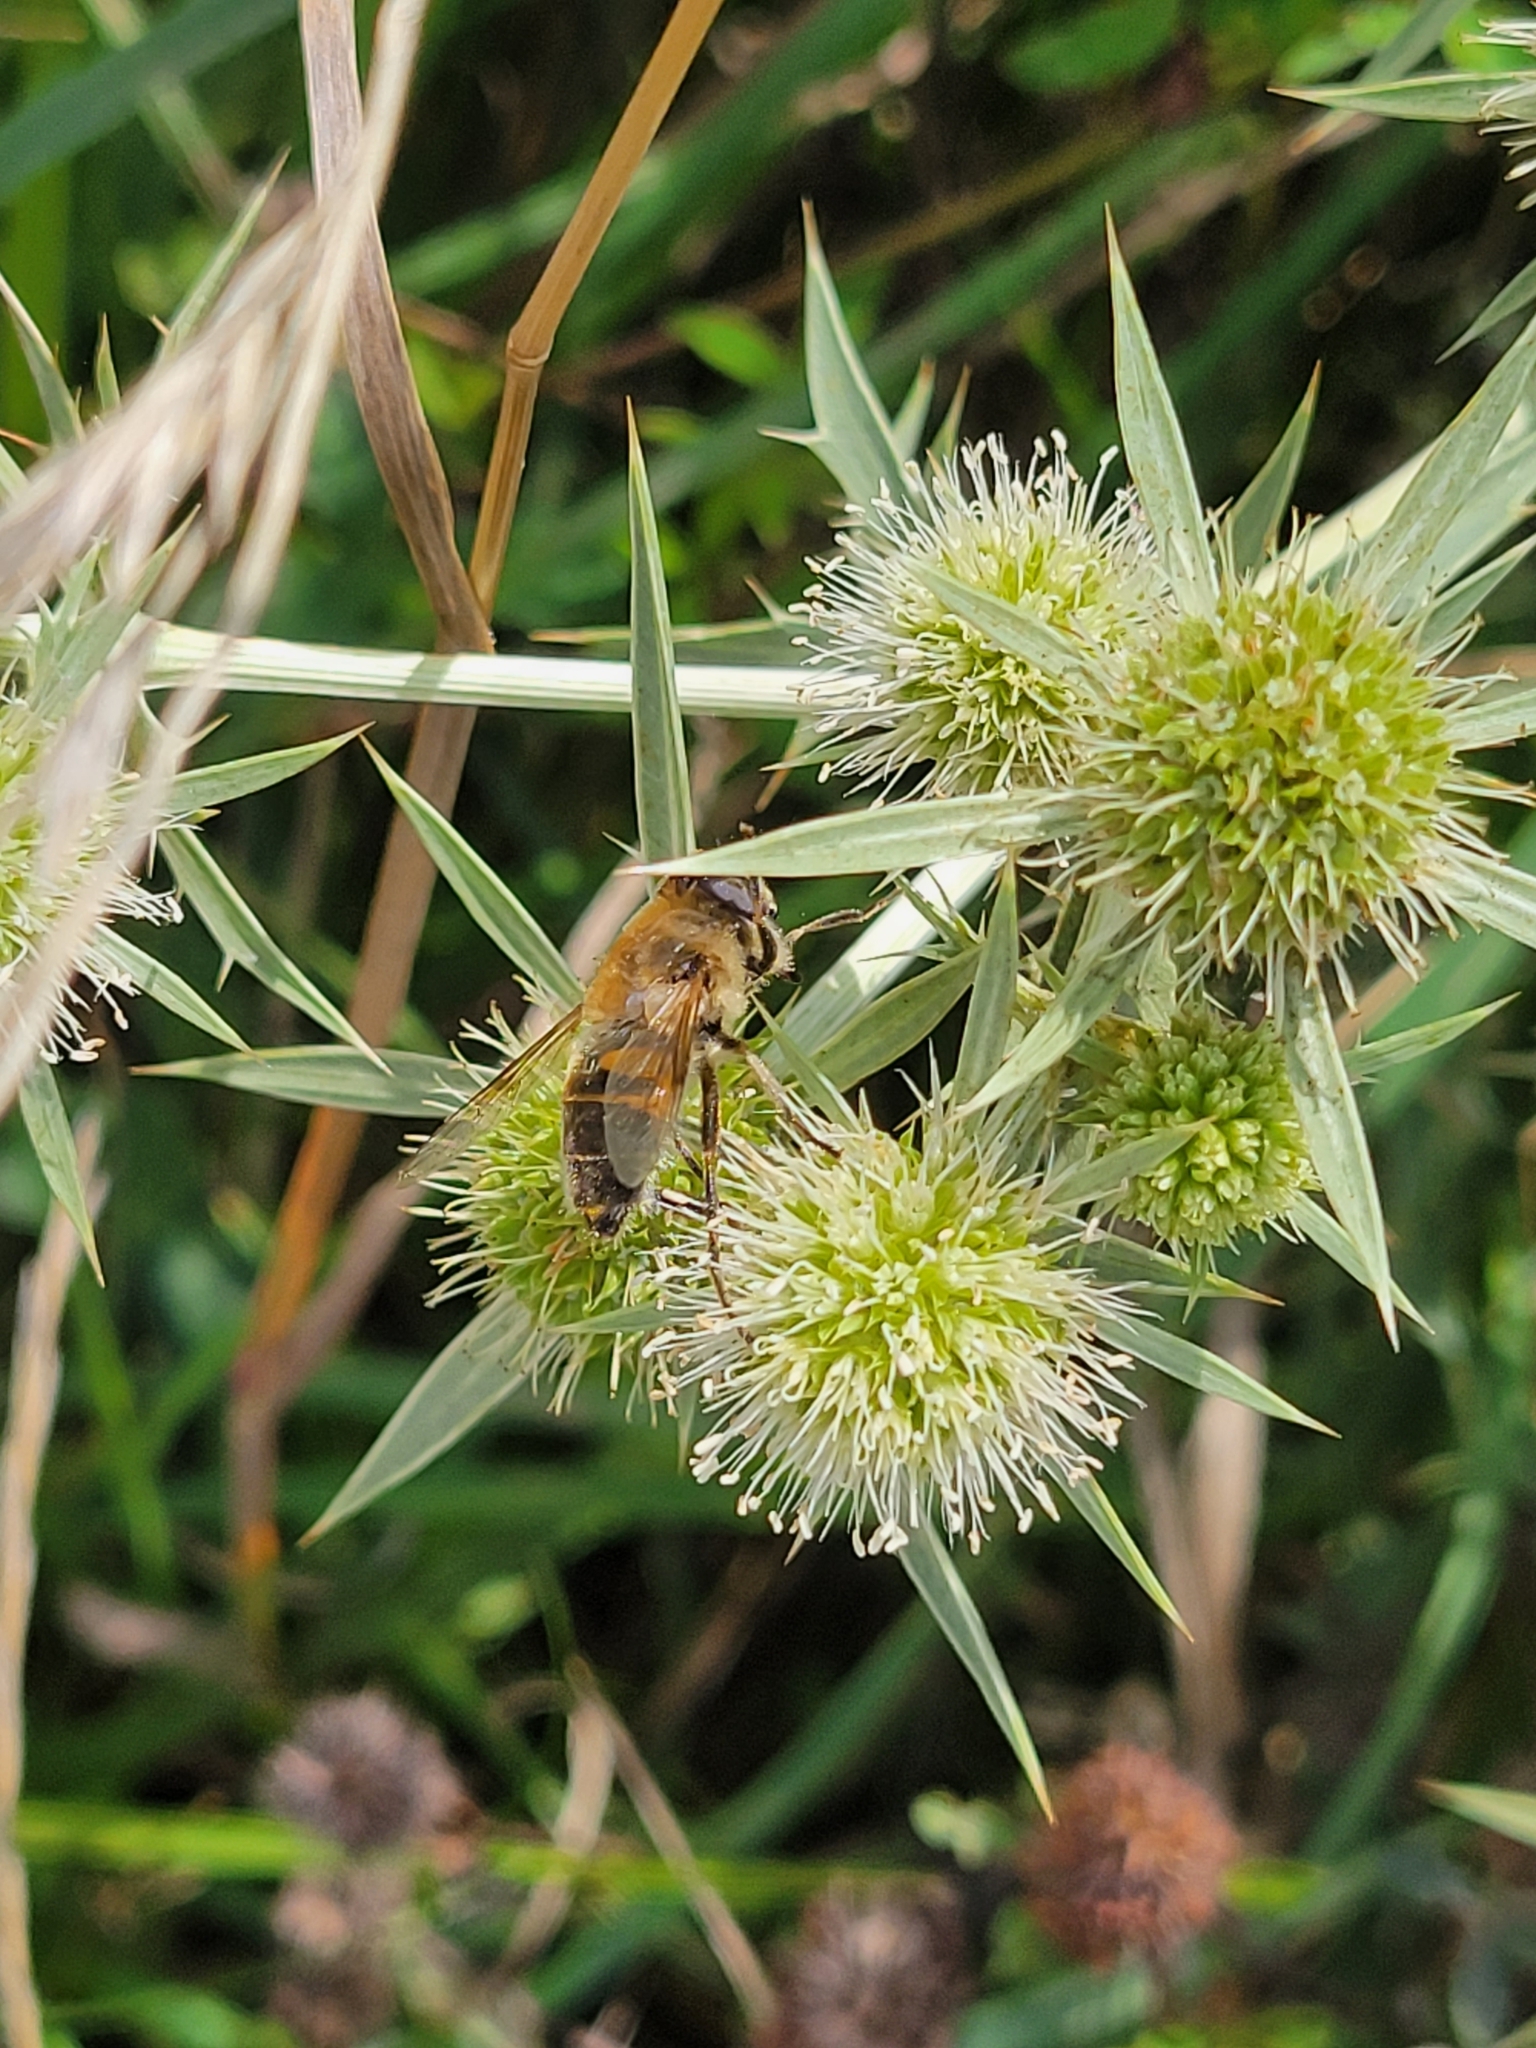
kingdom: Animalia
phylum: Arthropoda
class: Insecta
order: Diptera
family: Syrphidae
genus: Eristalis
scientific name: Eristalis tenax
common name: Drone fly
